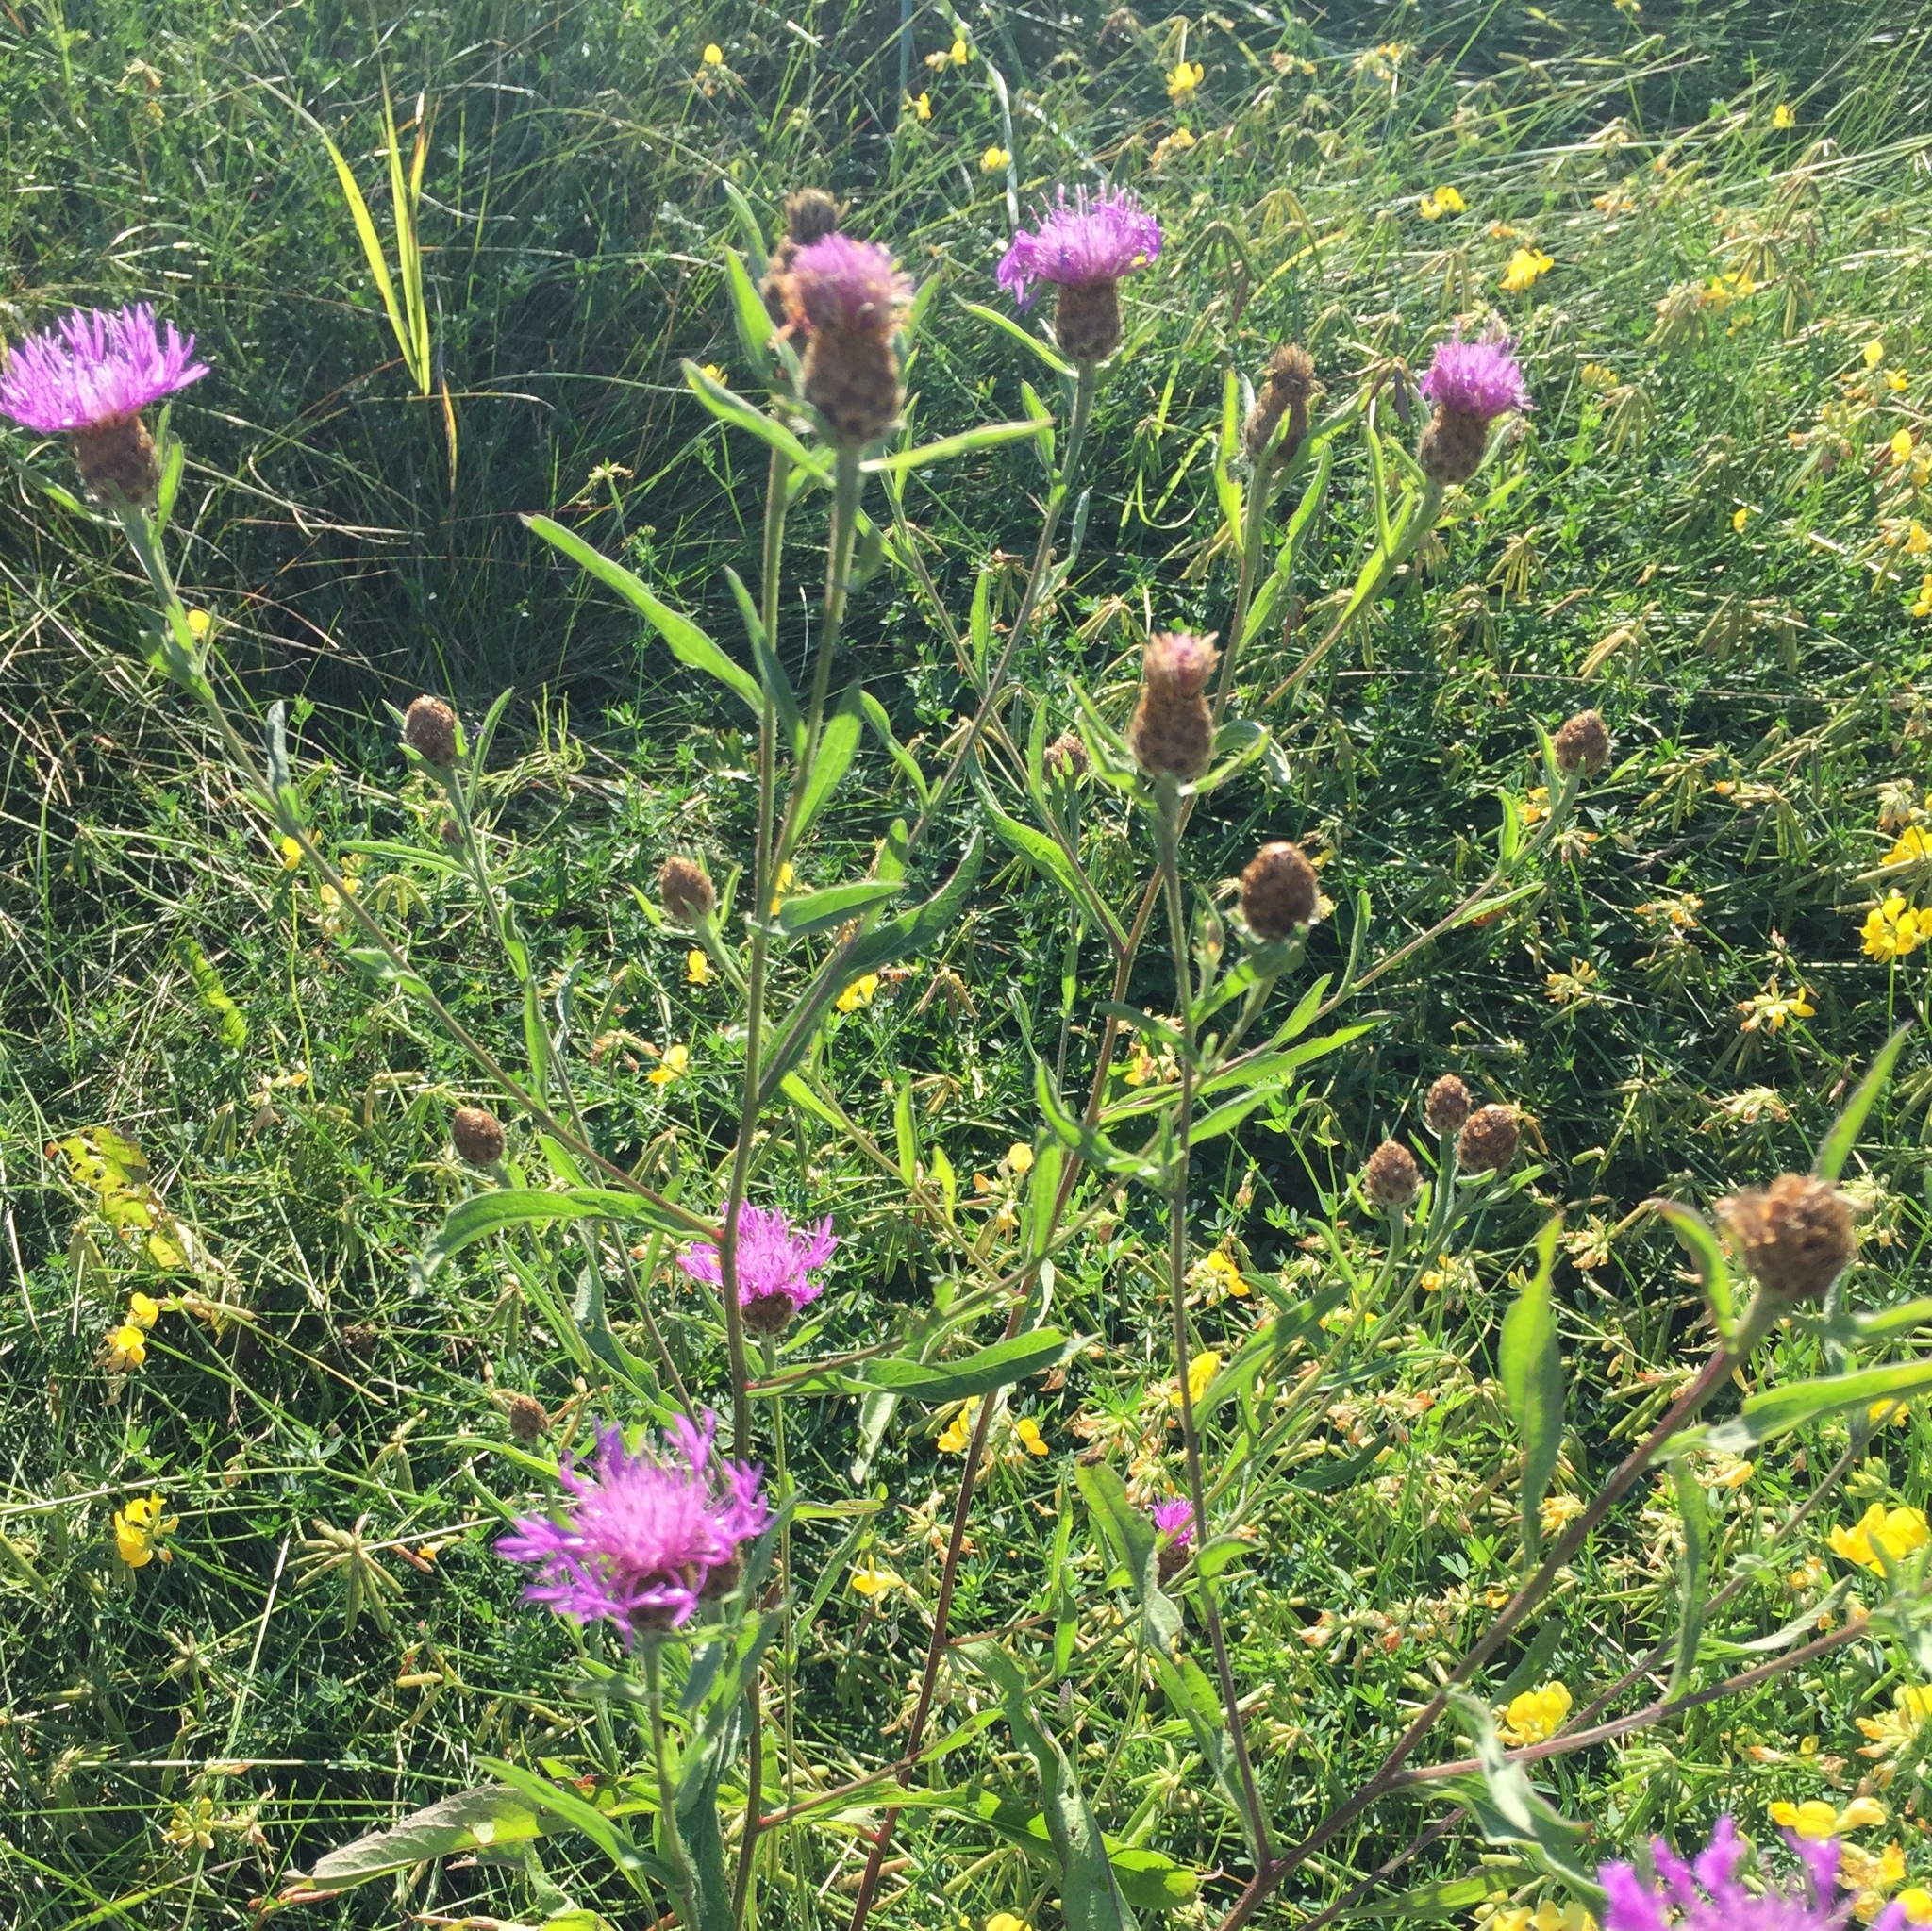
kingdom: Plantae
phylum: Tracheophyta
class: Magnoliopsida
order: Asterales
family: Asteraceae
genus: Centaurea
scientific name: Centaurea jacea
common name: Brown knapweed
